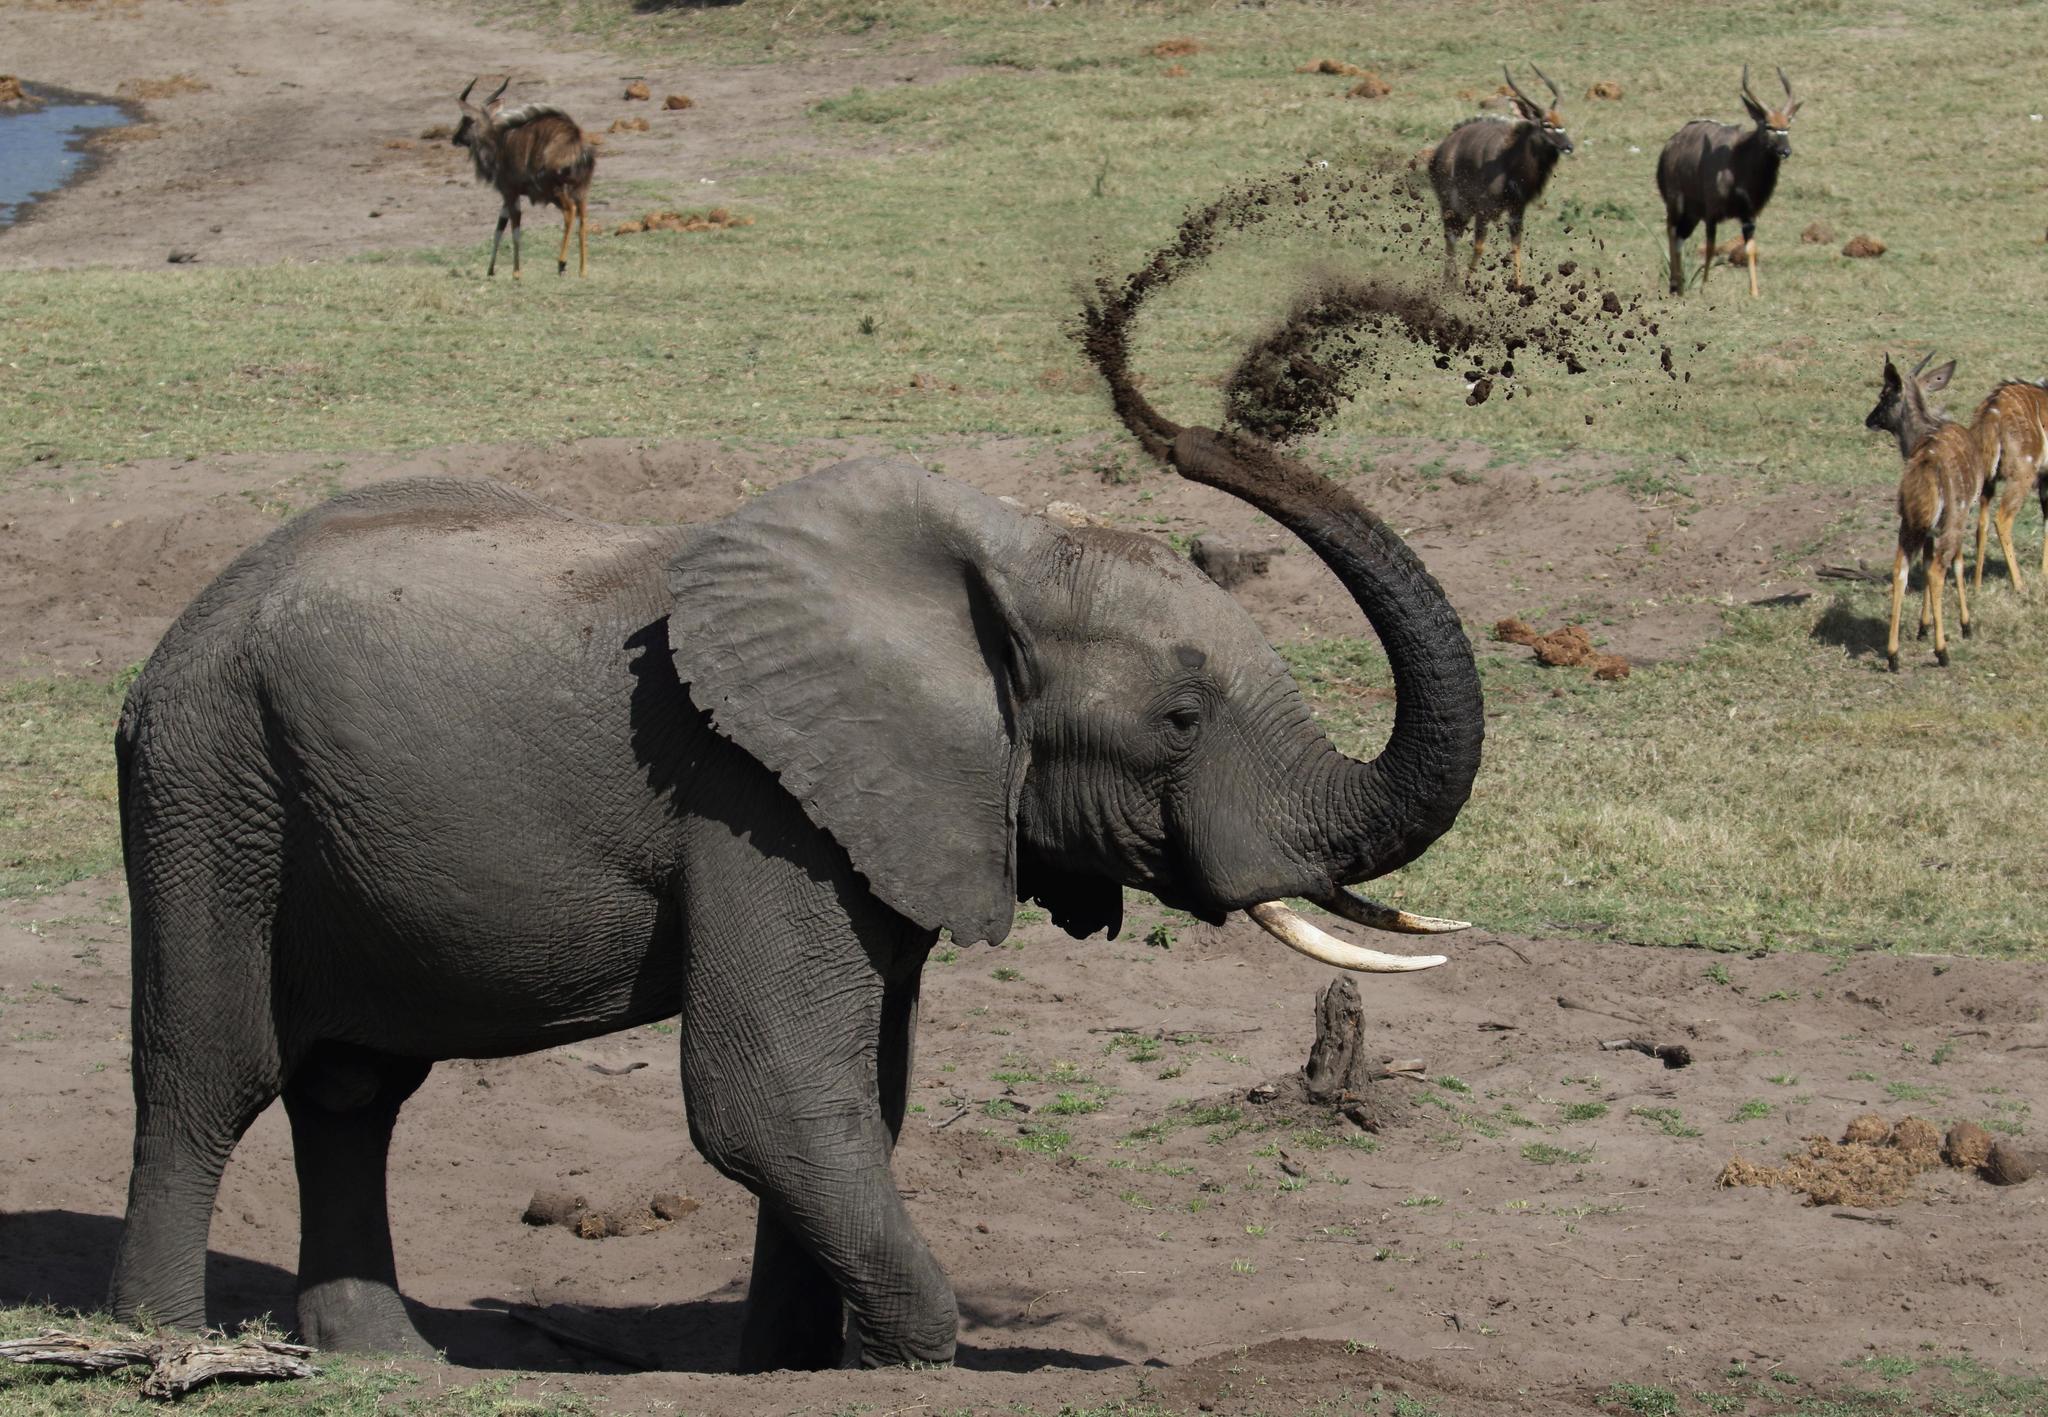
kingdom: Animalia
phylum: Chordata
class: Mammalia
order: Proboscidea
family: Elephantidae
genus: Loxodonta
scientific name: Loxodonta africana
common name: African elephant
